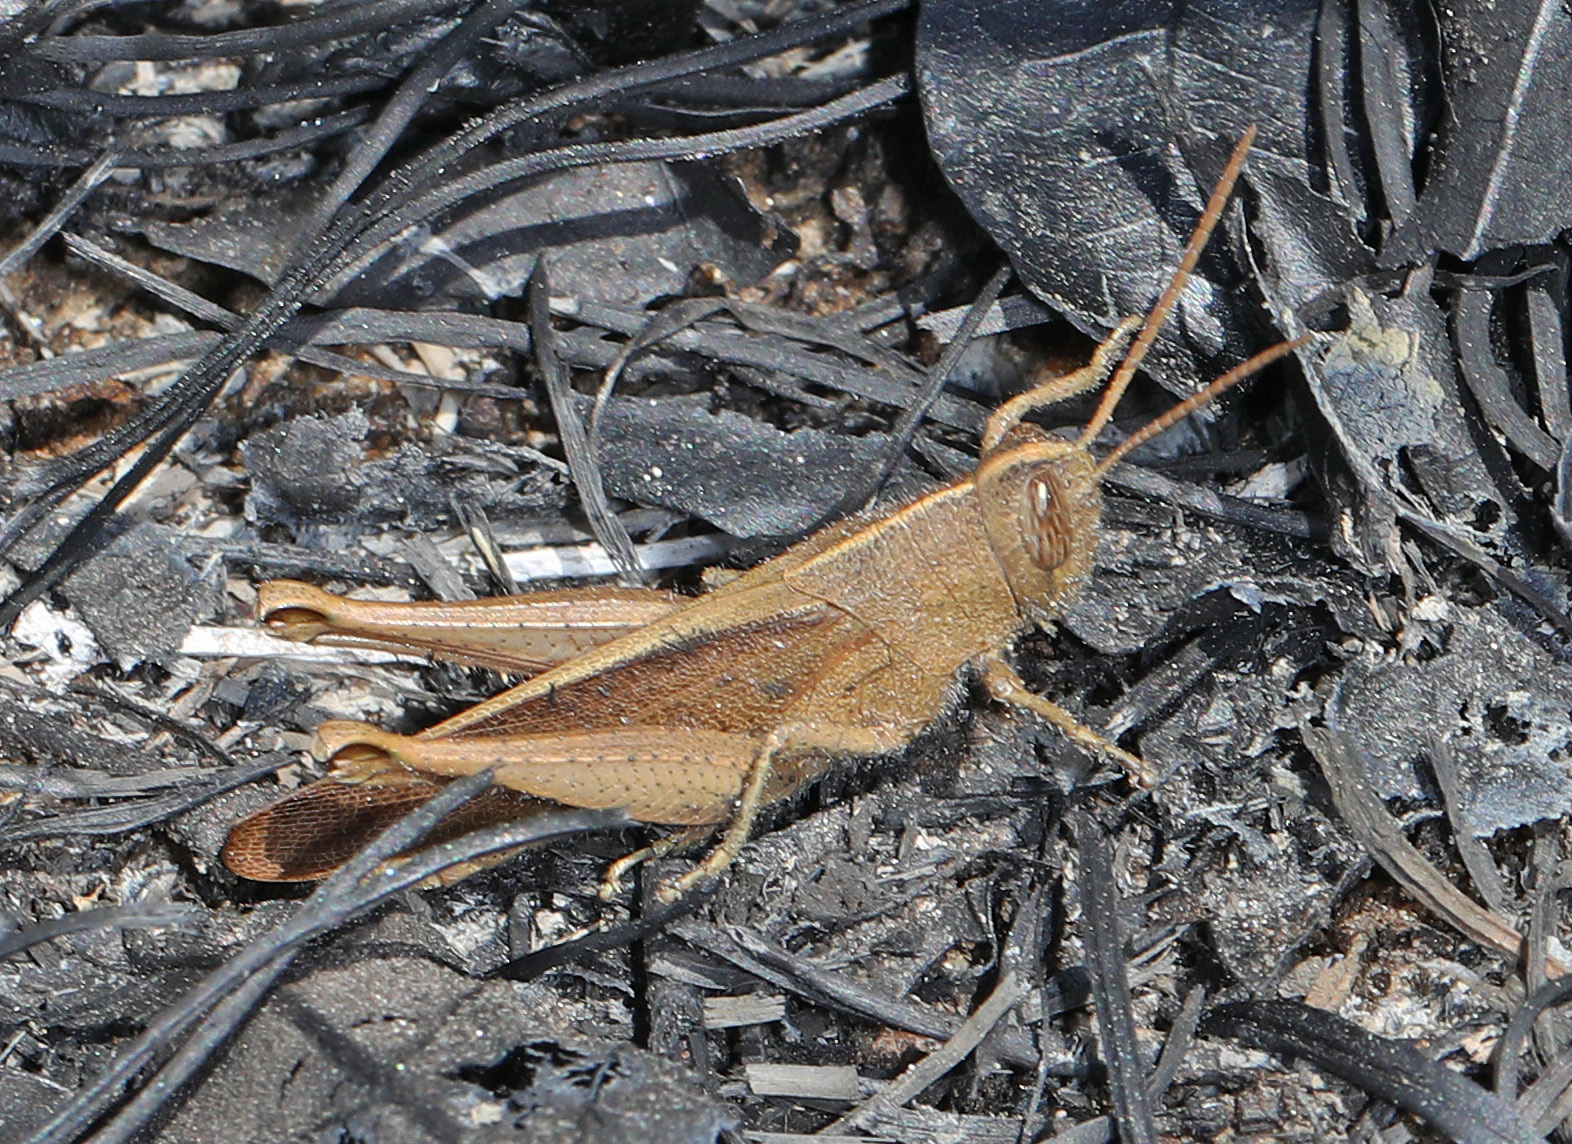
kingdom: Animalia
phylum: Arthropoda
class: Insecta
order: Orthoptera
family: Acrididae
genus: Schistocerca
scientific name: Schistocerca damnifica
